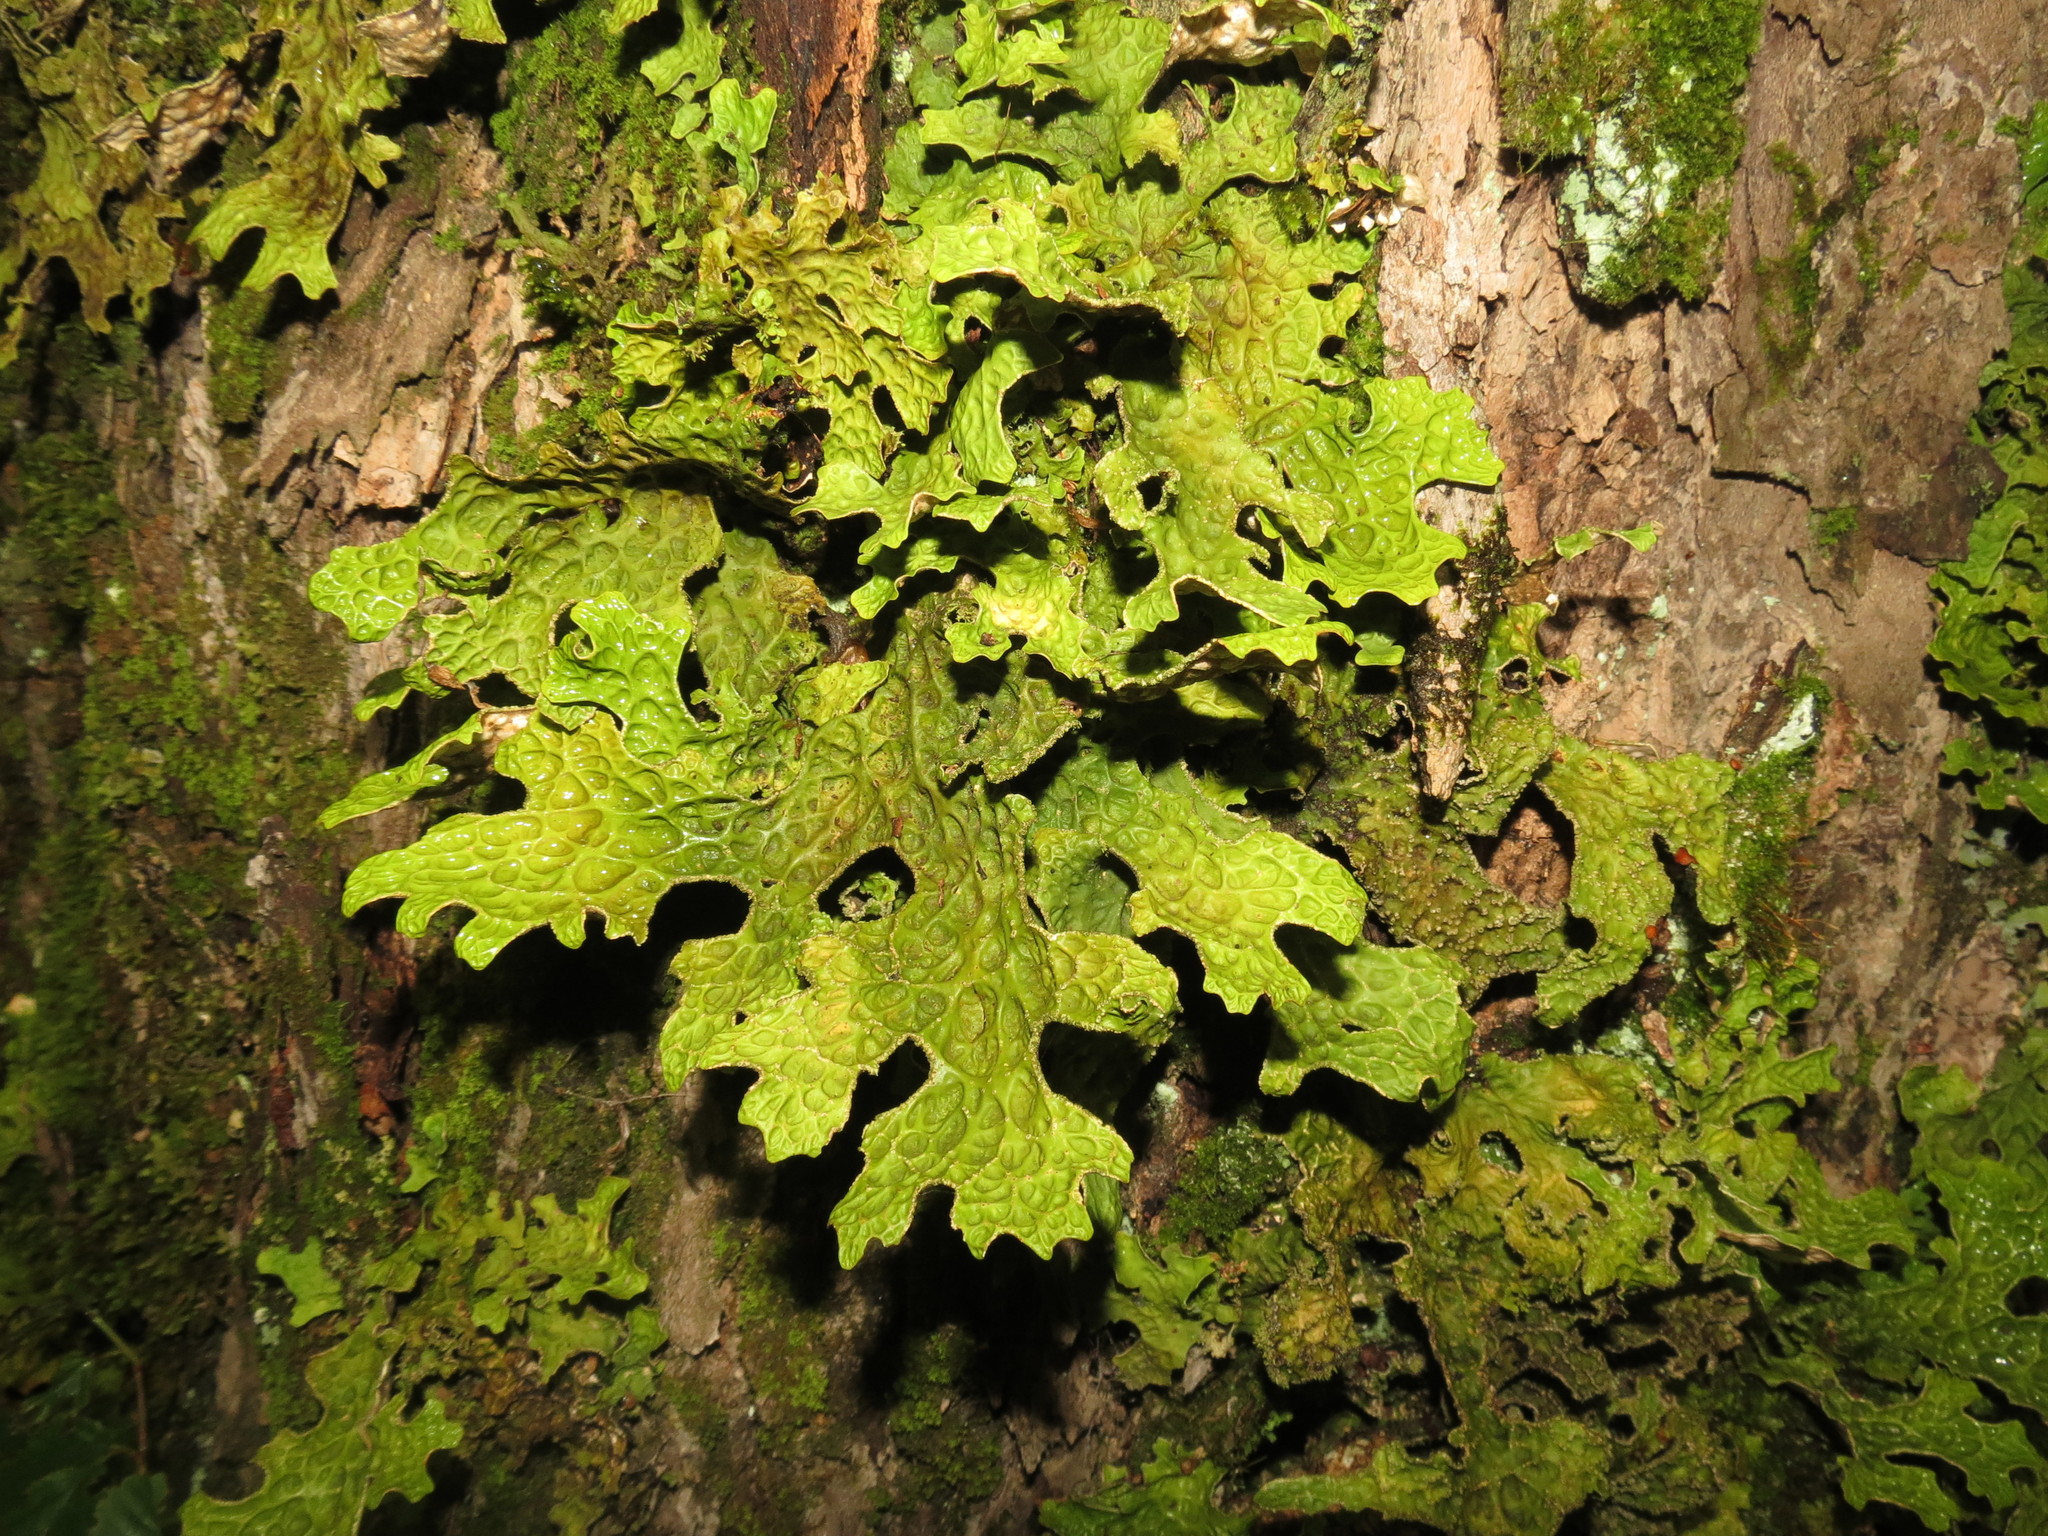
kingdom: Fungi
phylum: Ascomycota
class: Lecanoromycetes
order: Peltigerales
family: Lobariaceae
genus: Lobaria
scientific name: Lobaria pulmonaria
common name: Lungwort
